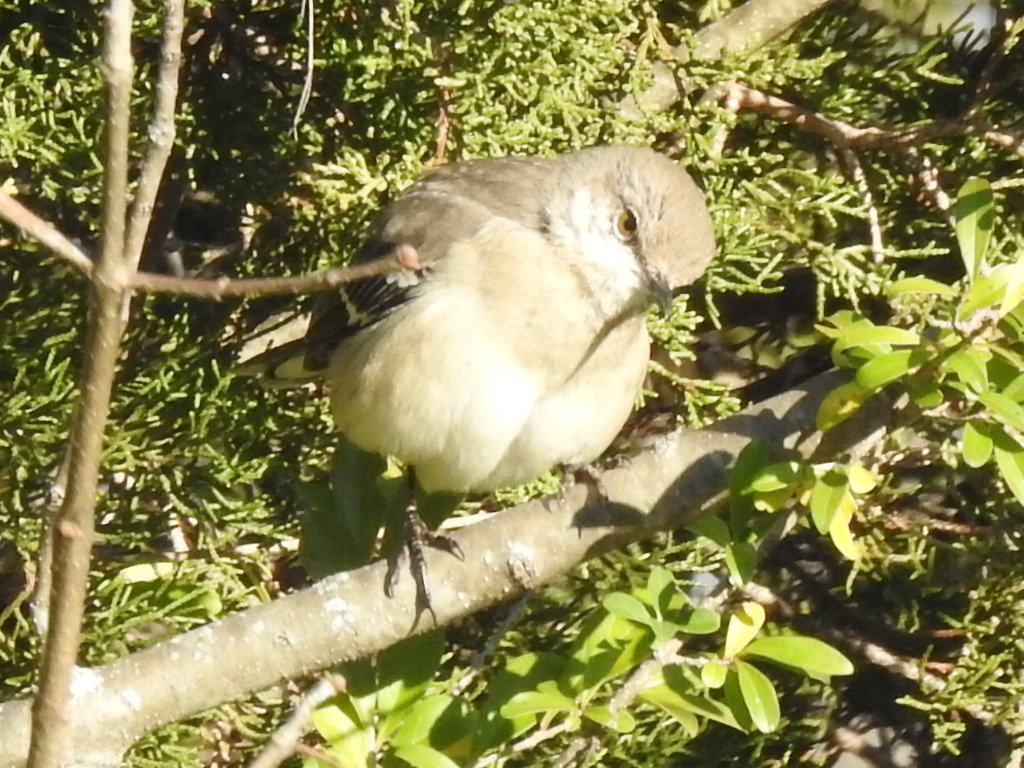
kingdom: Animalia
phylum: Chordata
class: Aves
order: Passeriformes
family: Mimidae
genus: Mimus
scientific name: Mimus polyglottos
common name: Northern mockingbird
